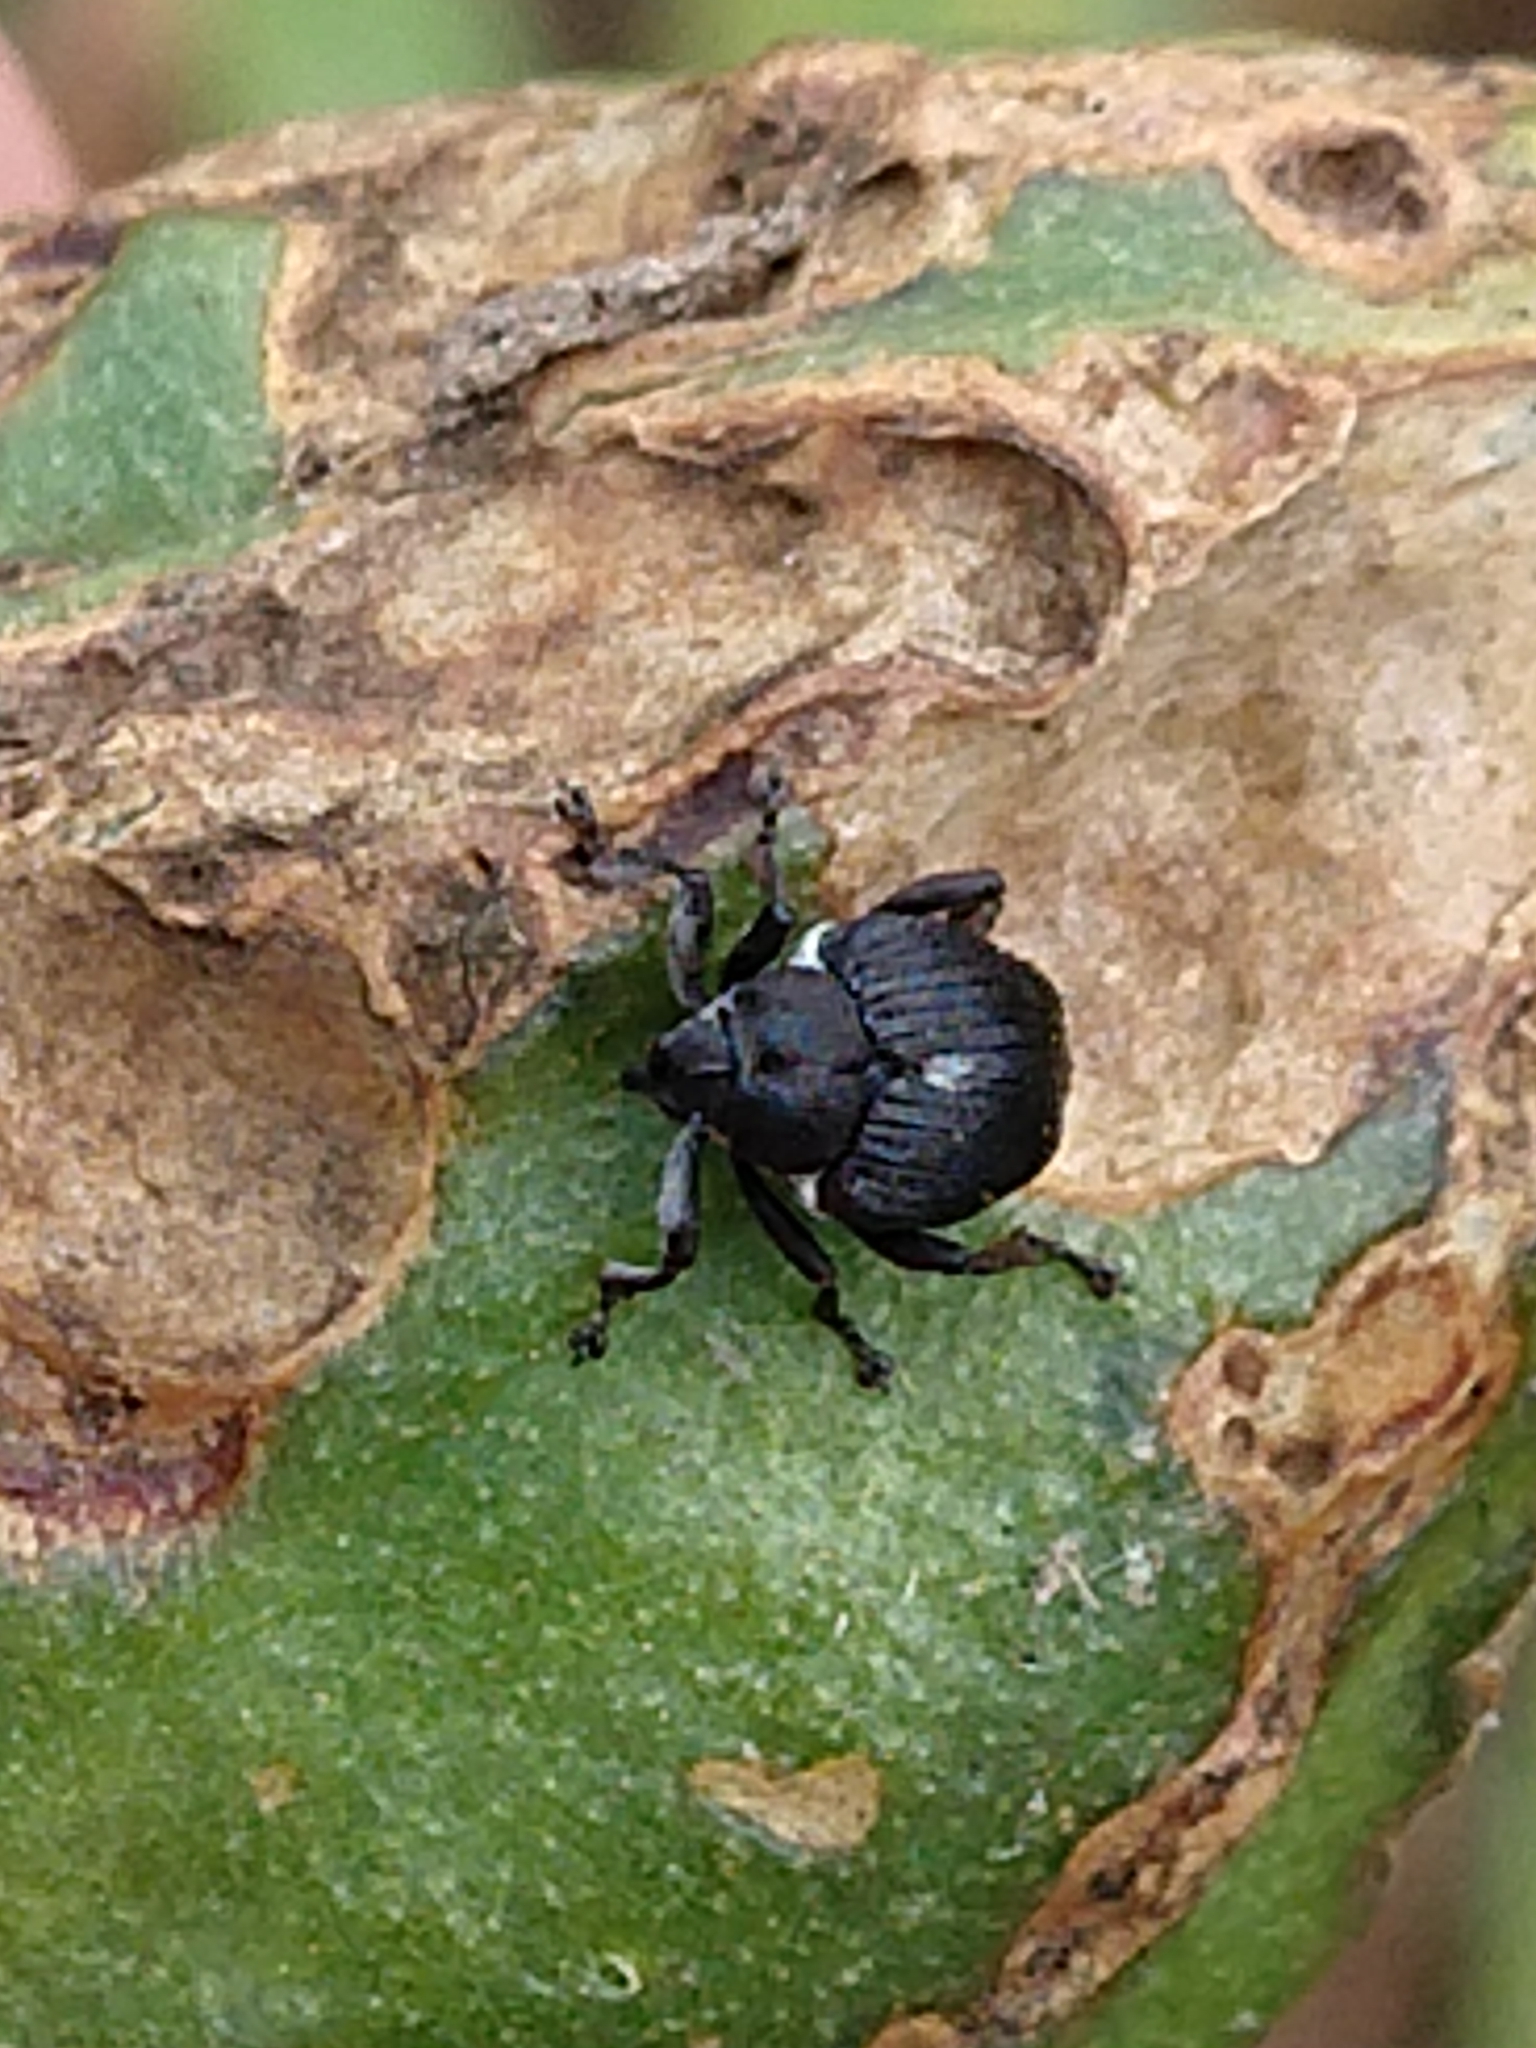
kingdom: Animalia
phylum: Arthropoda
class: Insecta
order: Coleoptera
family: Curculionidae
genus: Mononychus
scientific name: Mononychus punctumalbum
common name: Iris weevil
